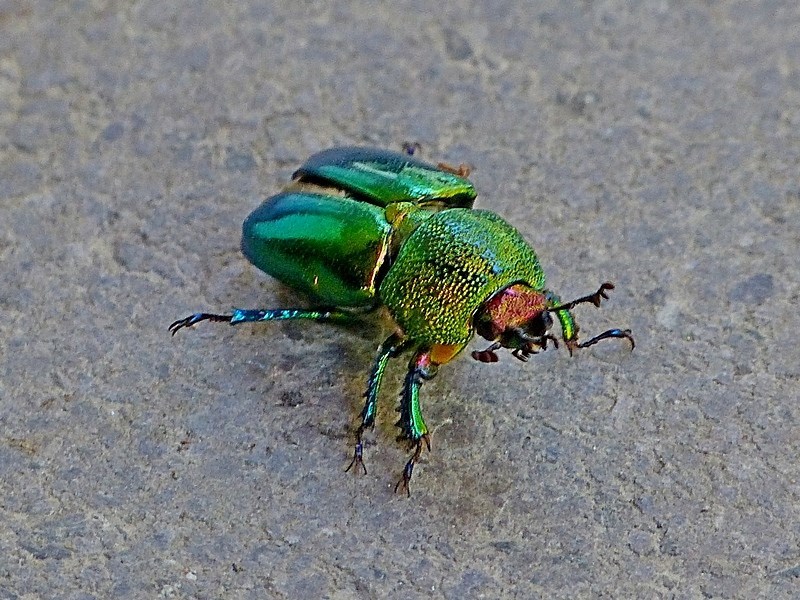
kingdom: Animalia
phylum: Arthropoda
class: Insecta
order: Coleoptera
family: Lucanidae
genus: Lamprima
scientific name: Lamprima aurata
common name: Golden stag beetle
